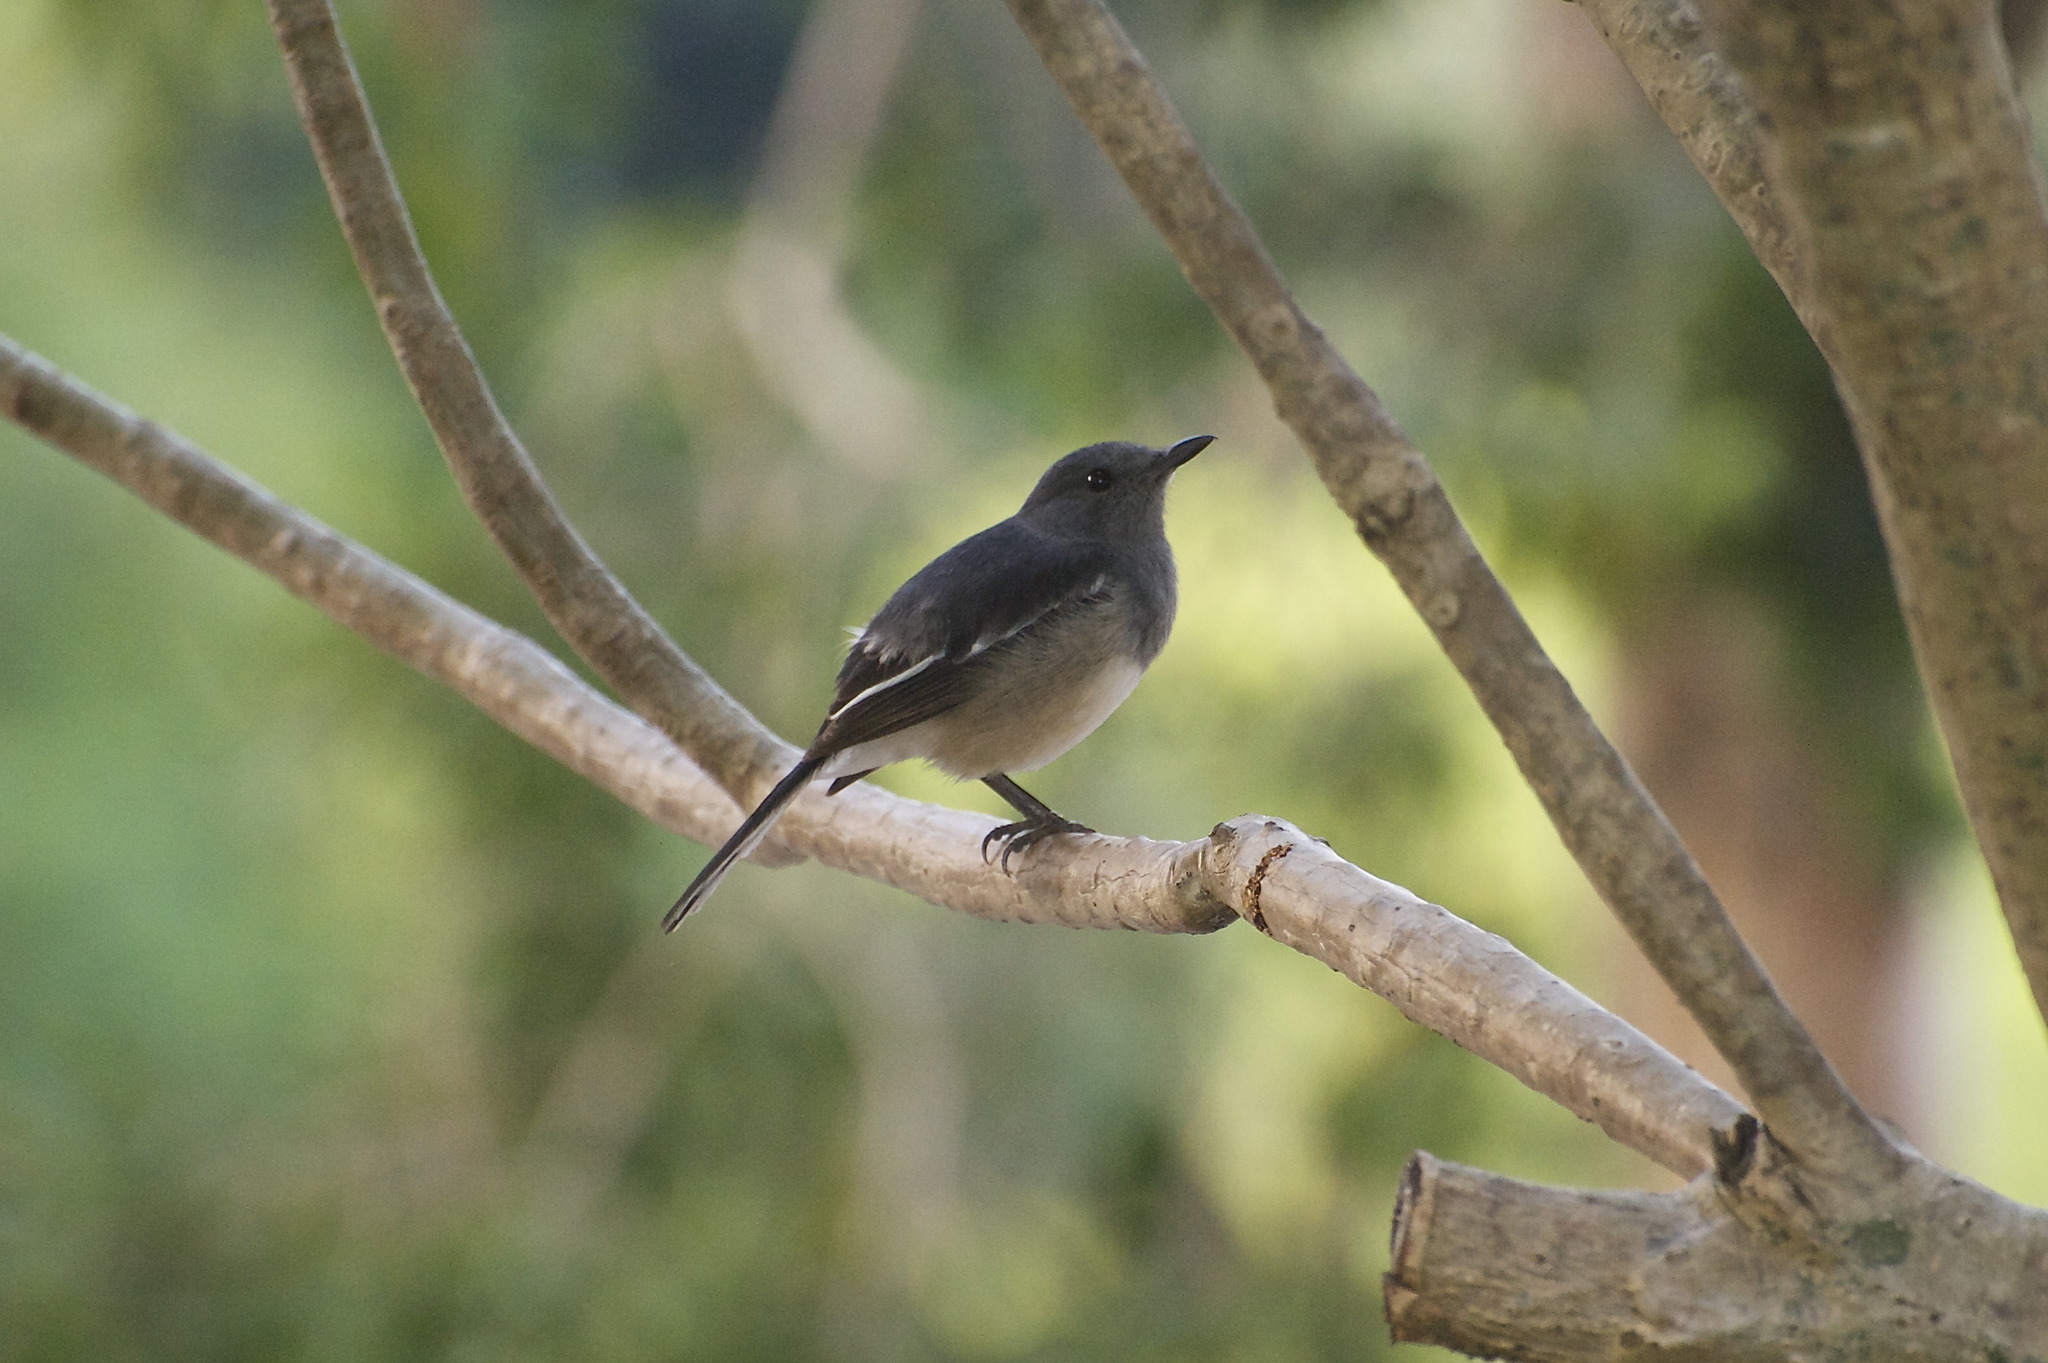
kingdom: Animalia
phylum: Chordata
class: Aves
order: Passeriformes
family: Muscicapidae
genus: Copsychus
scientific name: Copsychus saularis
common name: Oriental magpie-robin
